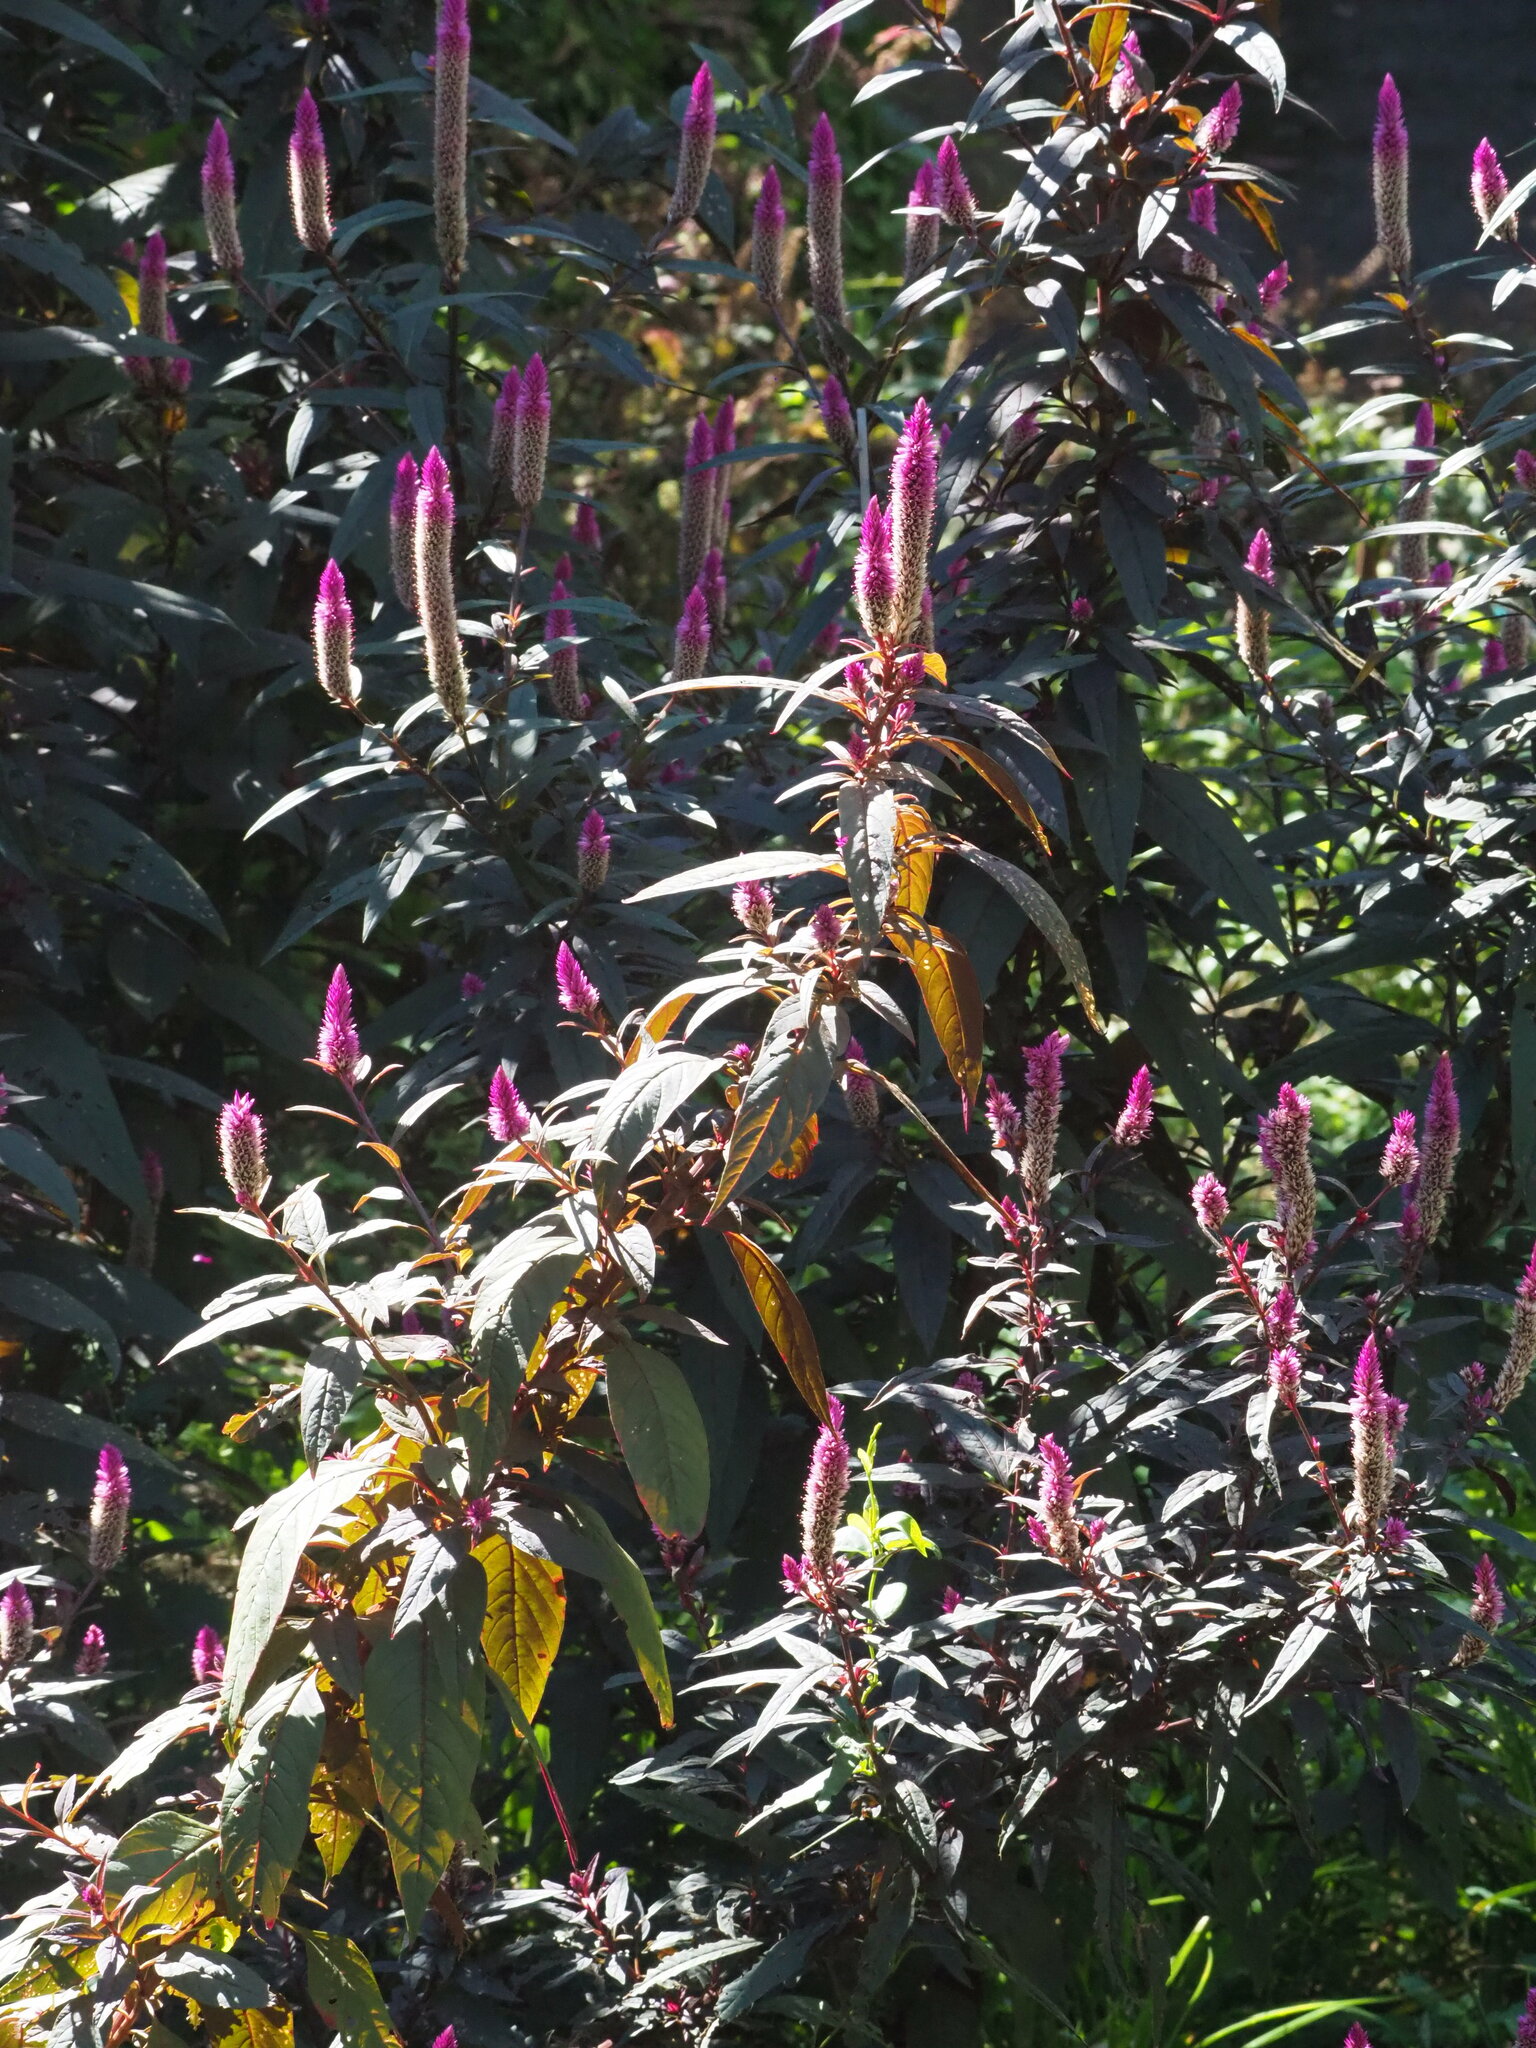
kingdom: Plantae
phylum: Tracheophyta
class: Magnoliopsida
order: Caryophyllales
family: Amaranthaceae
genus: Celosia
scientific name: Celosia argentea
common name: Feather cockscomb
